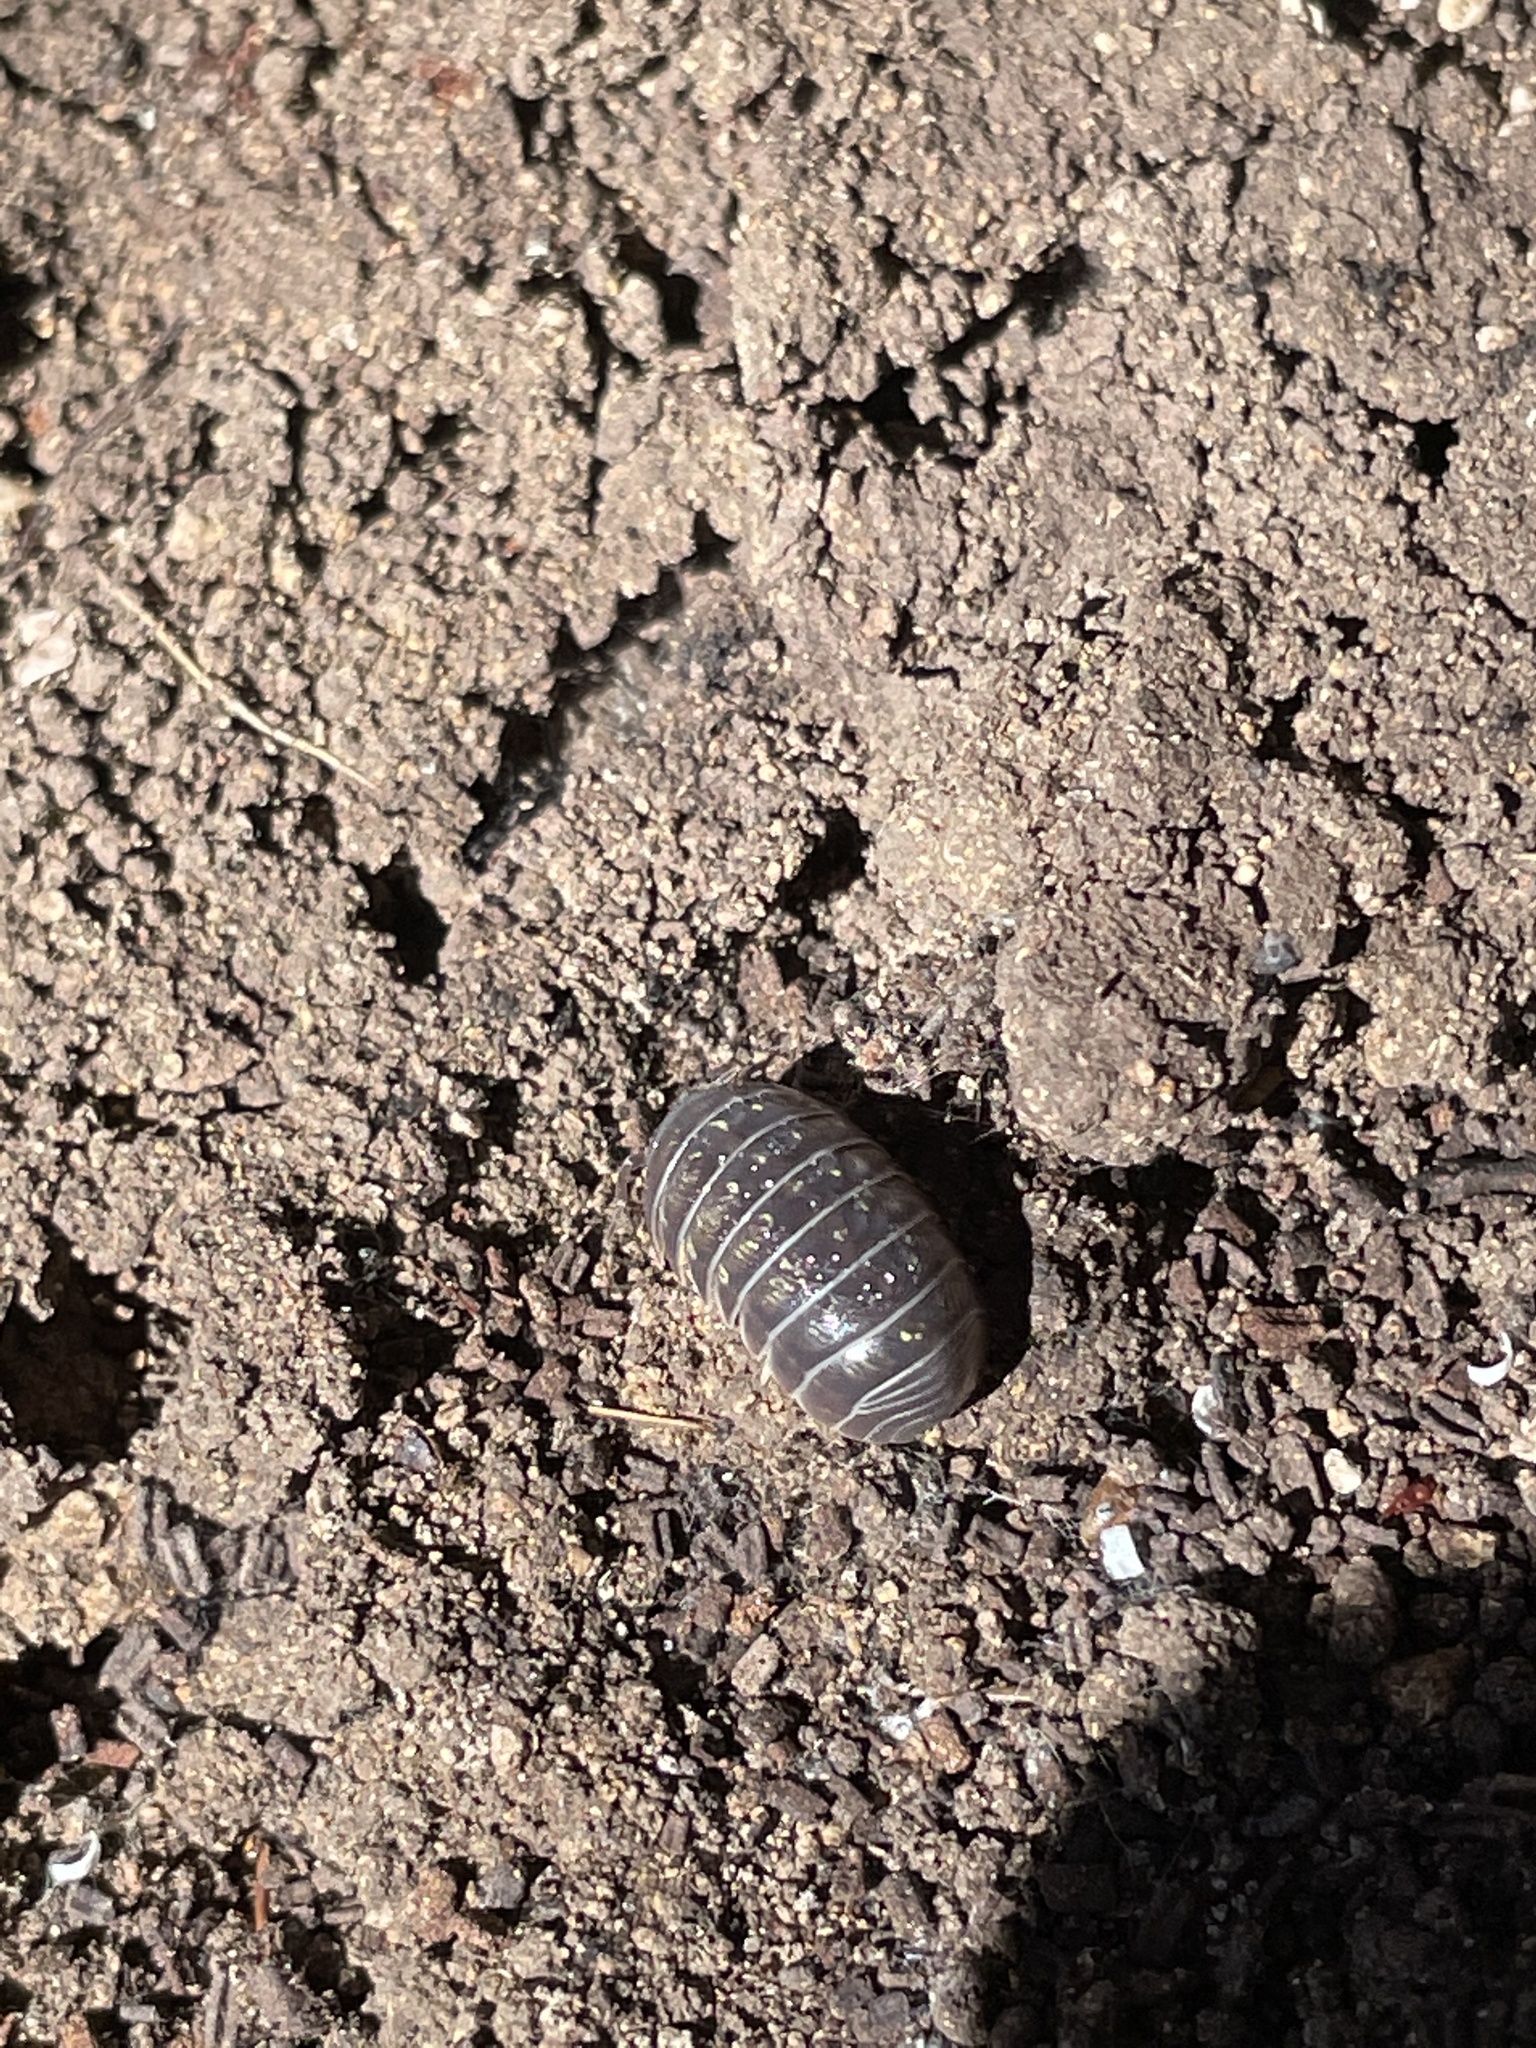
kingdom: Animalia
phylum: Arthropoda
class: Malacostraca
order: Isopoda
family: Armadillidiidae
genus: Armadillidium
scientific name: Armadillidium vulgare
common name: Common pill woodlouse
